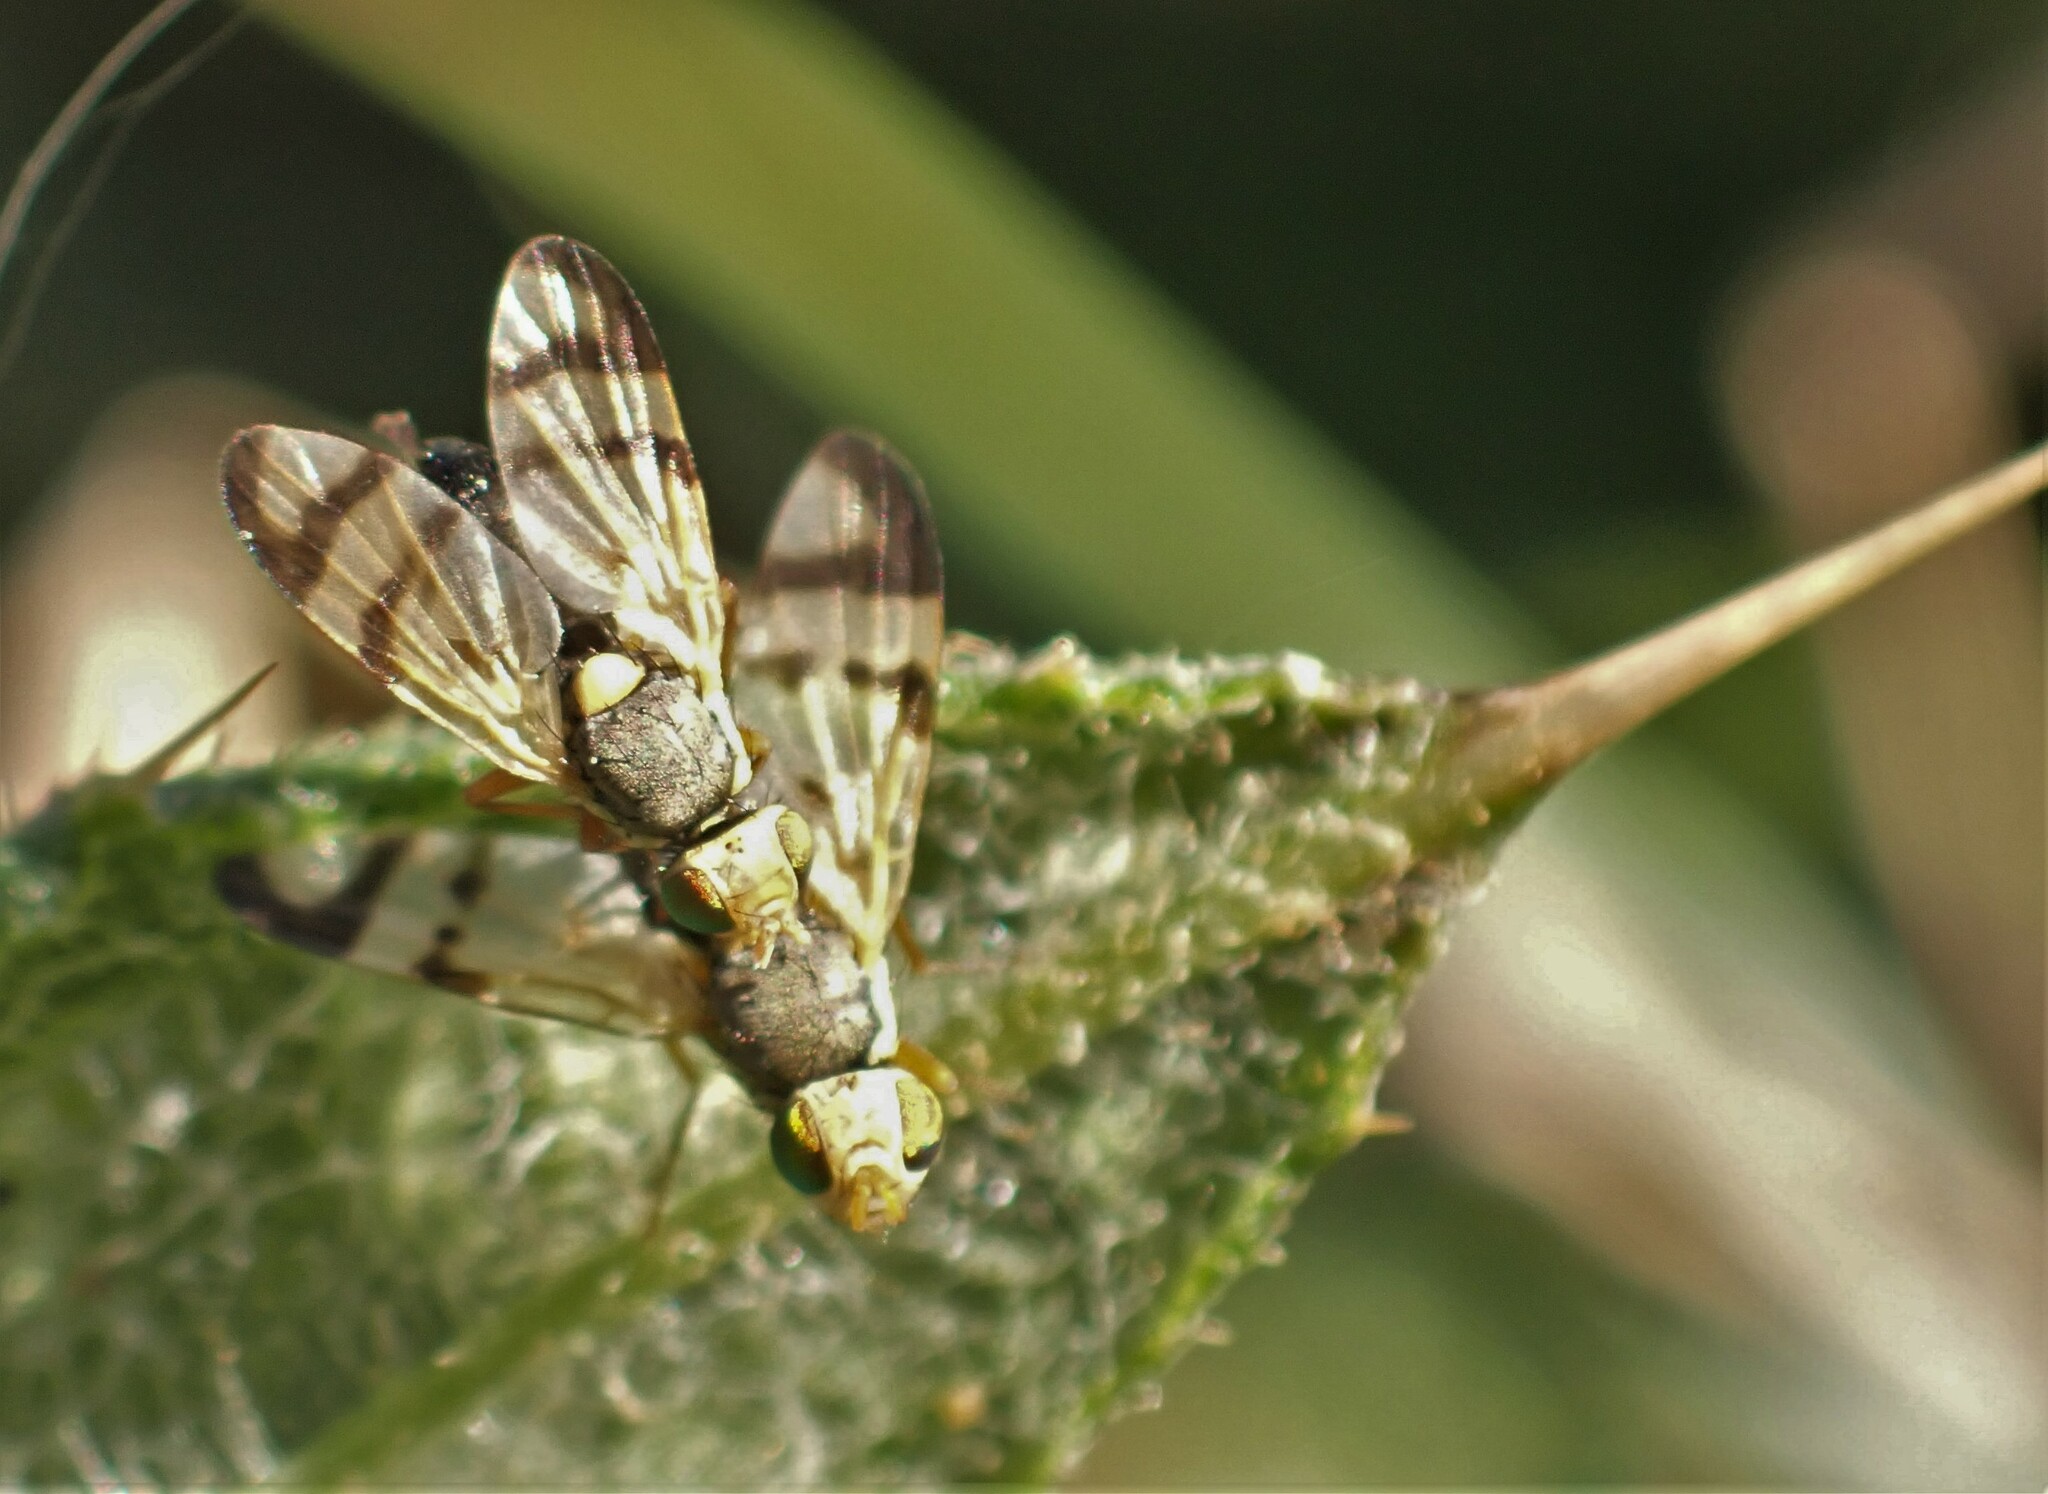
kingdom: Animalia
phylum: Arthropoda
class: Insecta
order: Diptera
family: Tephritidae
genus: Urophora
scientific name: Urophora stylata
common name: Fruit fly
